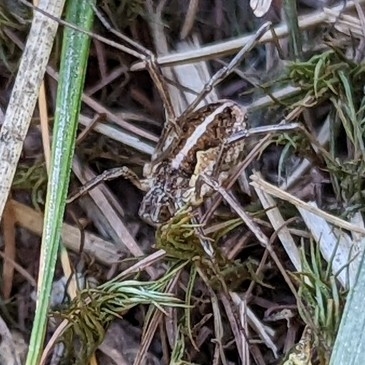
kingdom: Animalia
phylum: Arthropoda
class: Arachnida
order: Opiliones
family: Phalangiidae
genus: Mitopus
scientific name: Mitopus morio
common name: Saddleback harvestman
